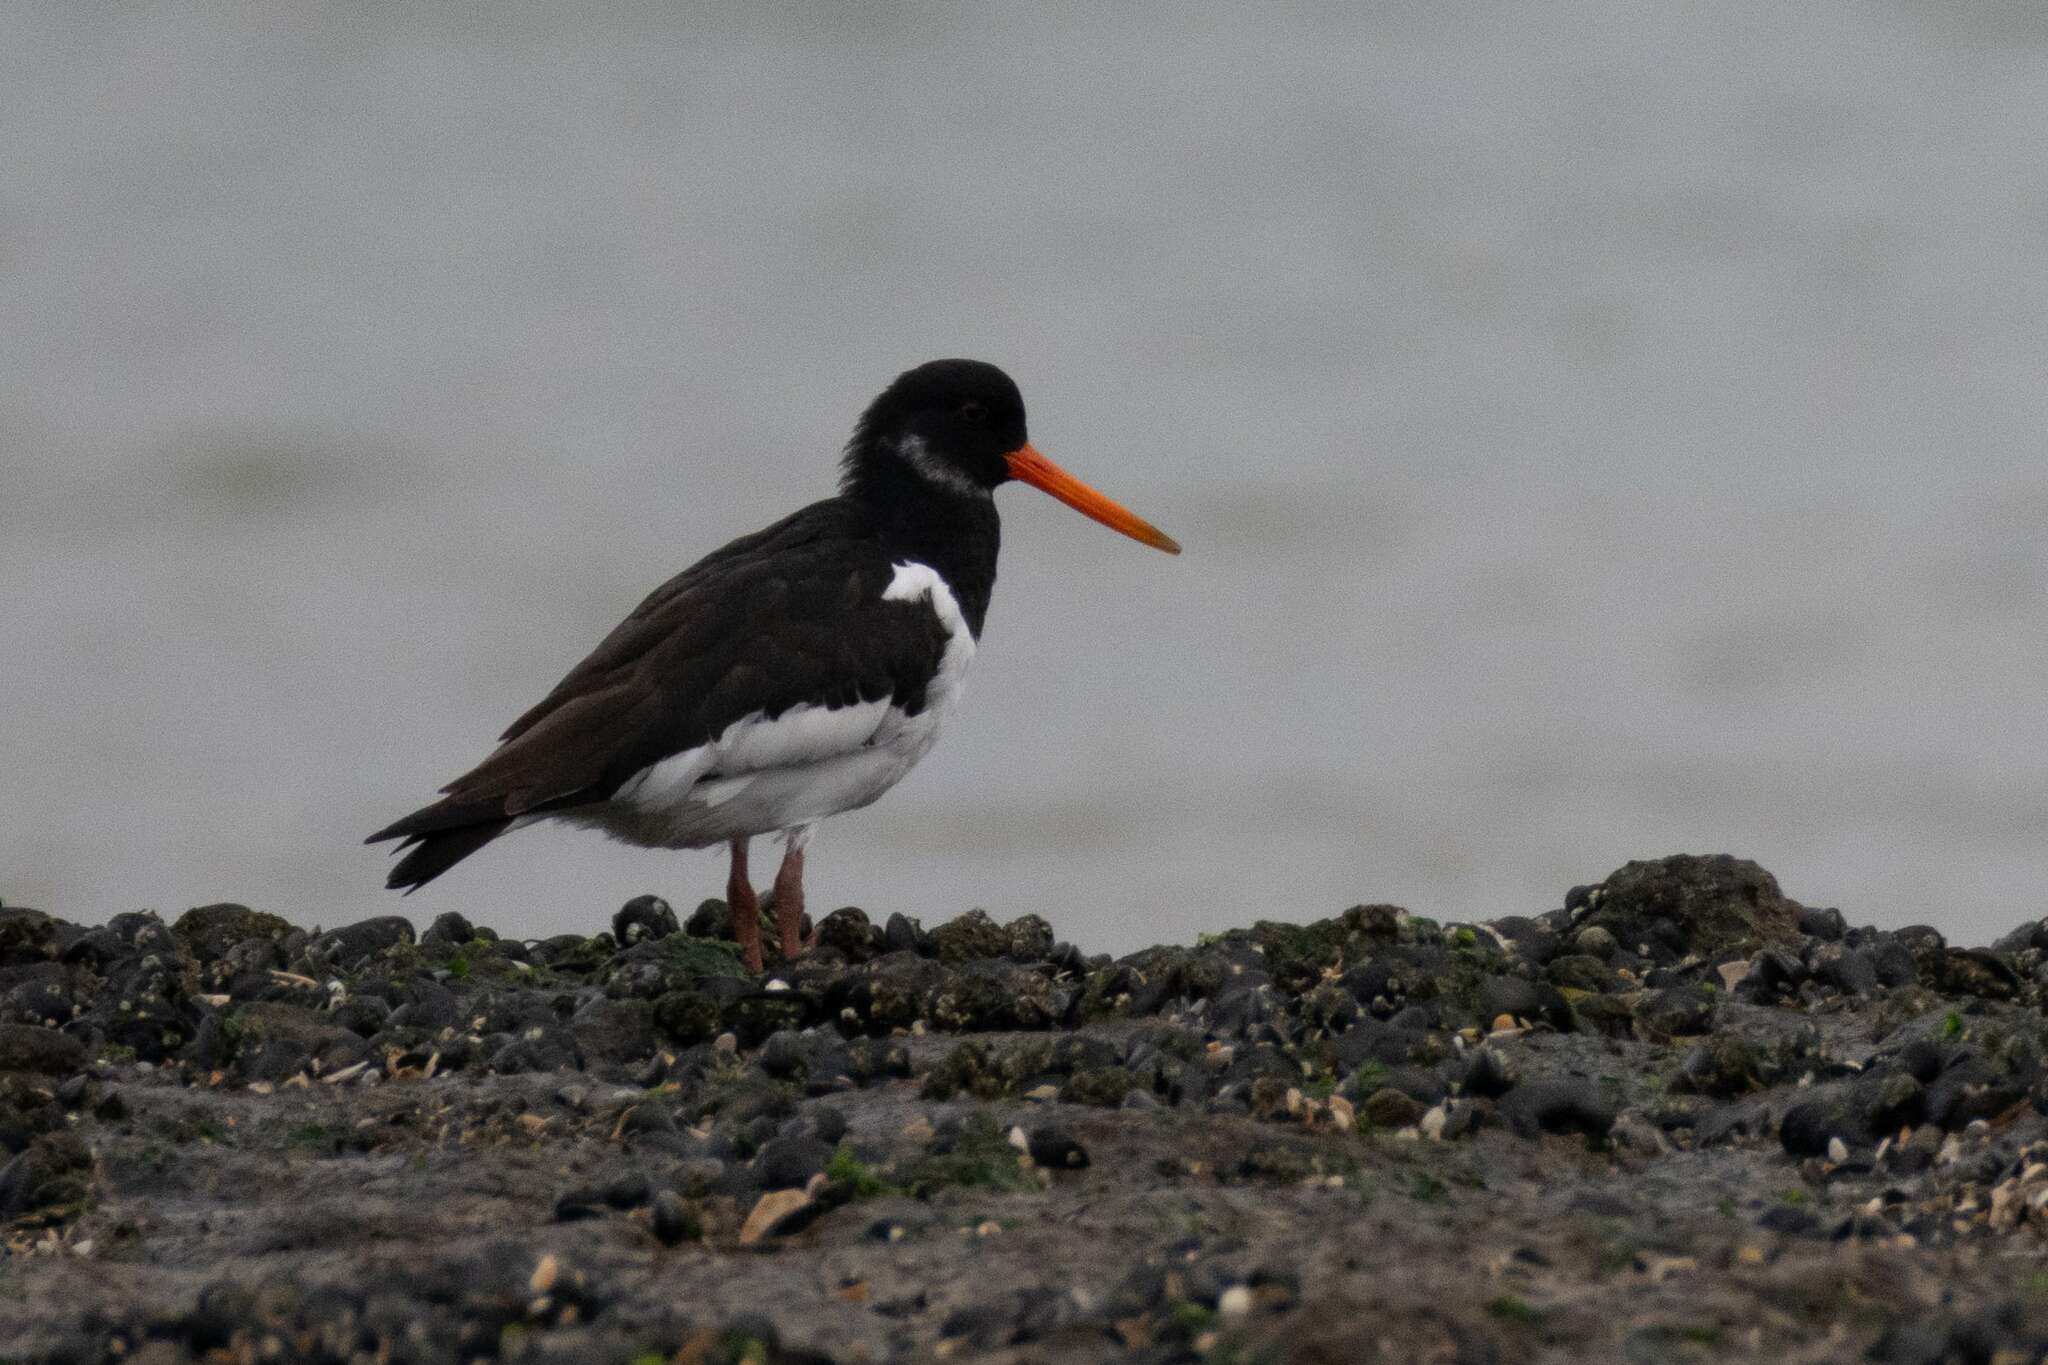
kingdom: Animalia
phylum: Chordata
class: Aves
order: Charadriiformes
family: Haematopodidae
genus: Haematopus
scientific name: Haematopus ostralegus
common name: Eurasian oystercatcher
